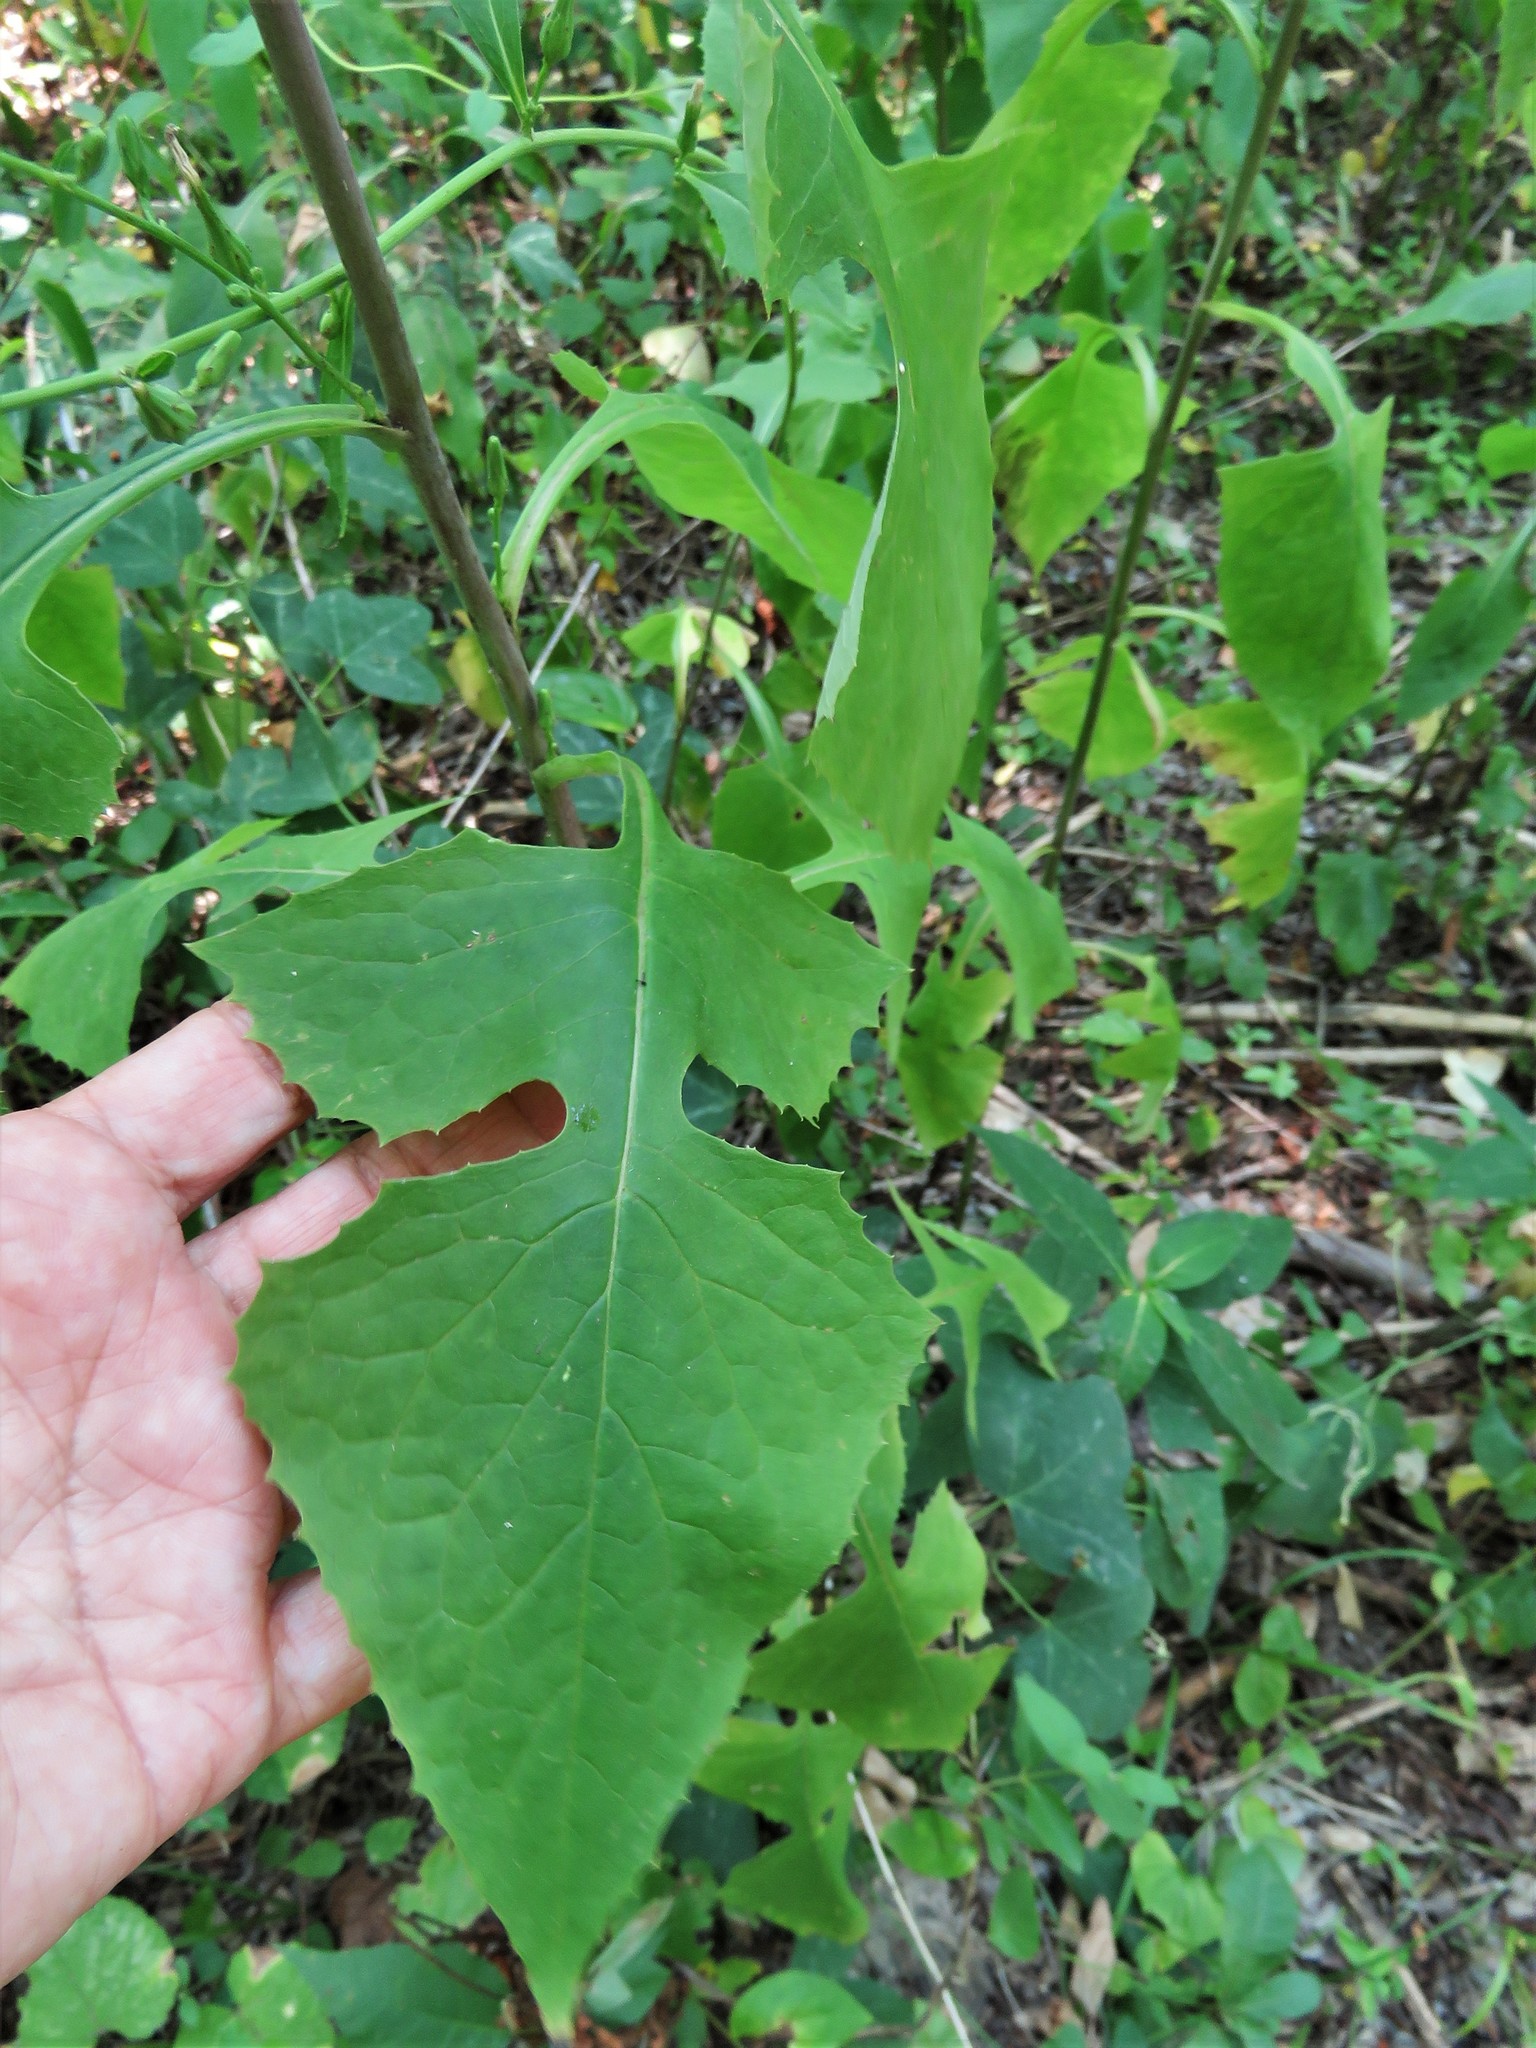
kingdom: Plantae
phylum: Tracheophyta
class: Magnoliopsida
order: Asterales
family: Asteraceae
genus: Lactuca
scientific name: Lactuca floridana
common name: Woodland lettuce
